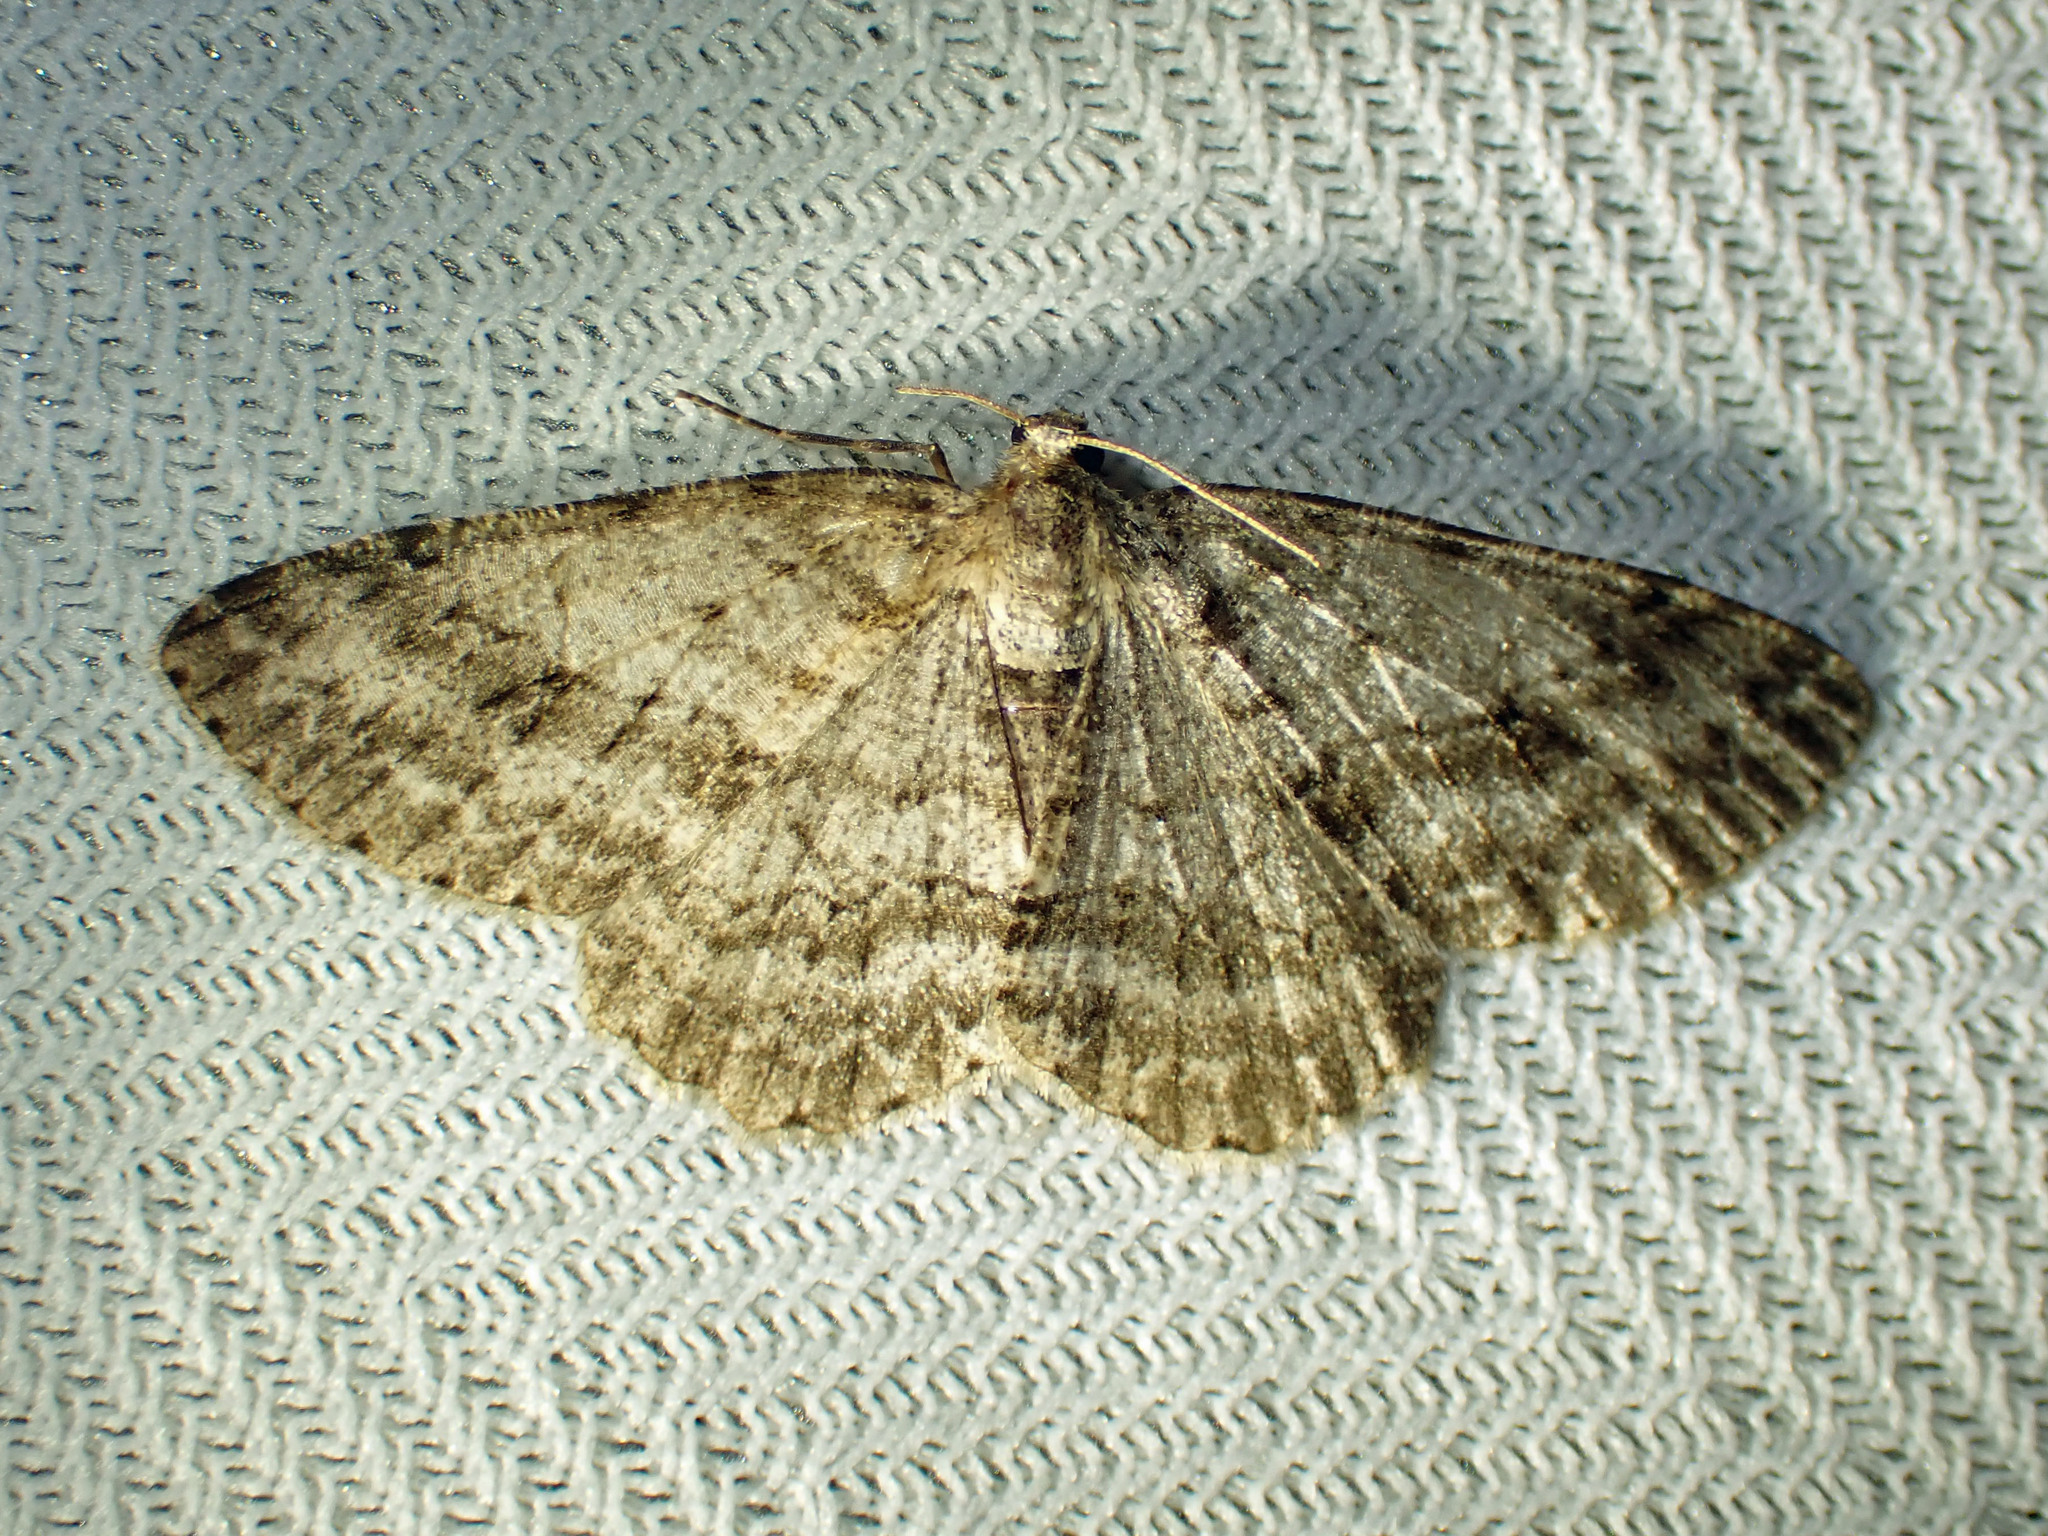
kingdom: Animalia
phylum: Arthropoda
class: Insecta
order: Lepidoptera
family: Geometridae
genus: Ectropis
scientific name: Ectropis crepuscularia
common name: Engrailed
